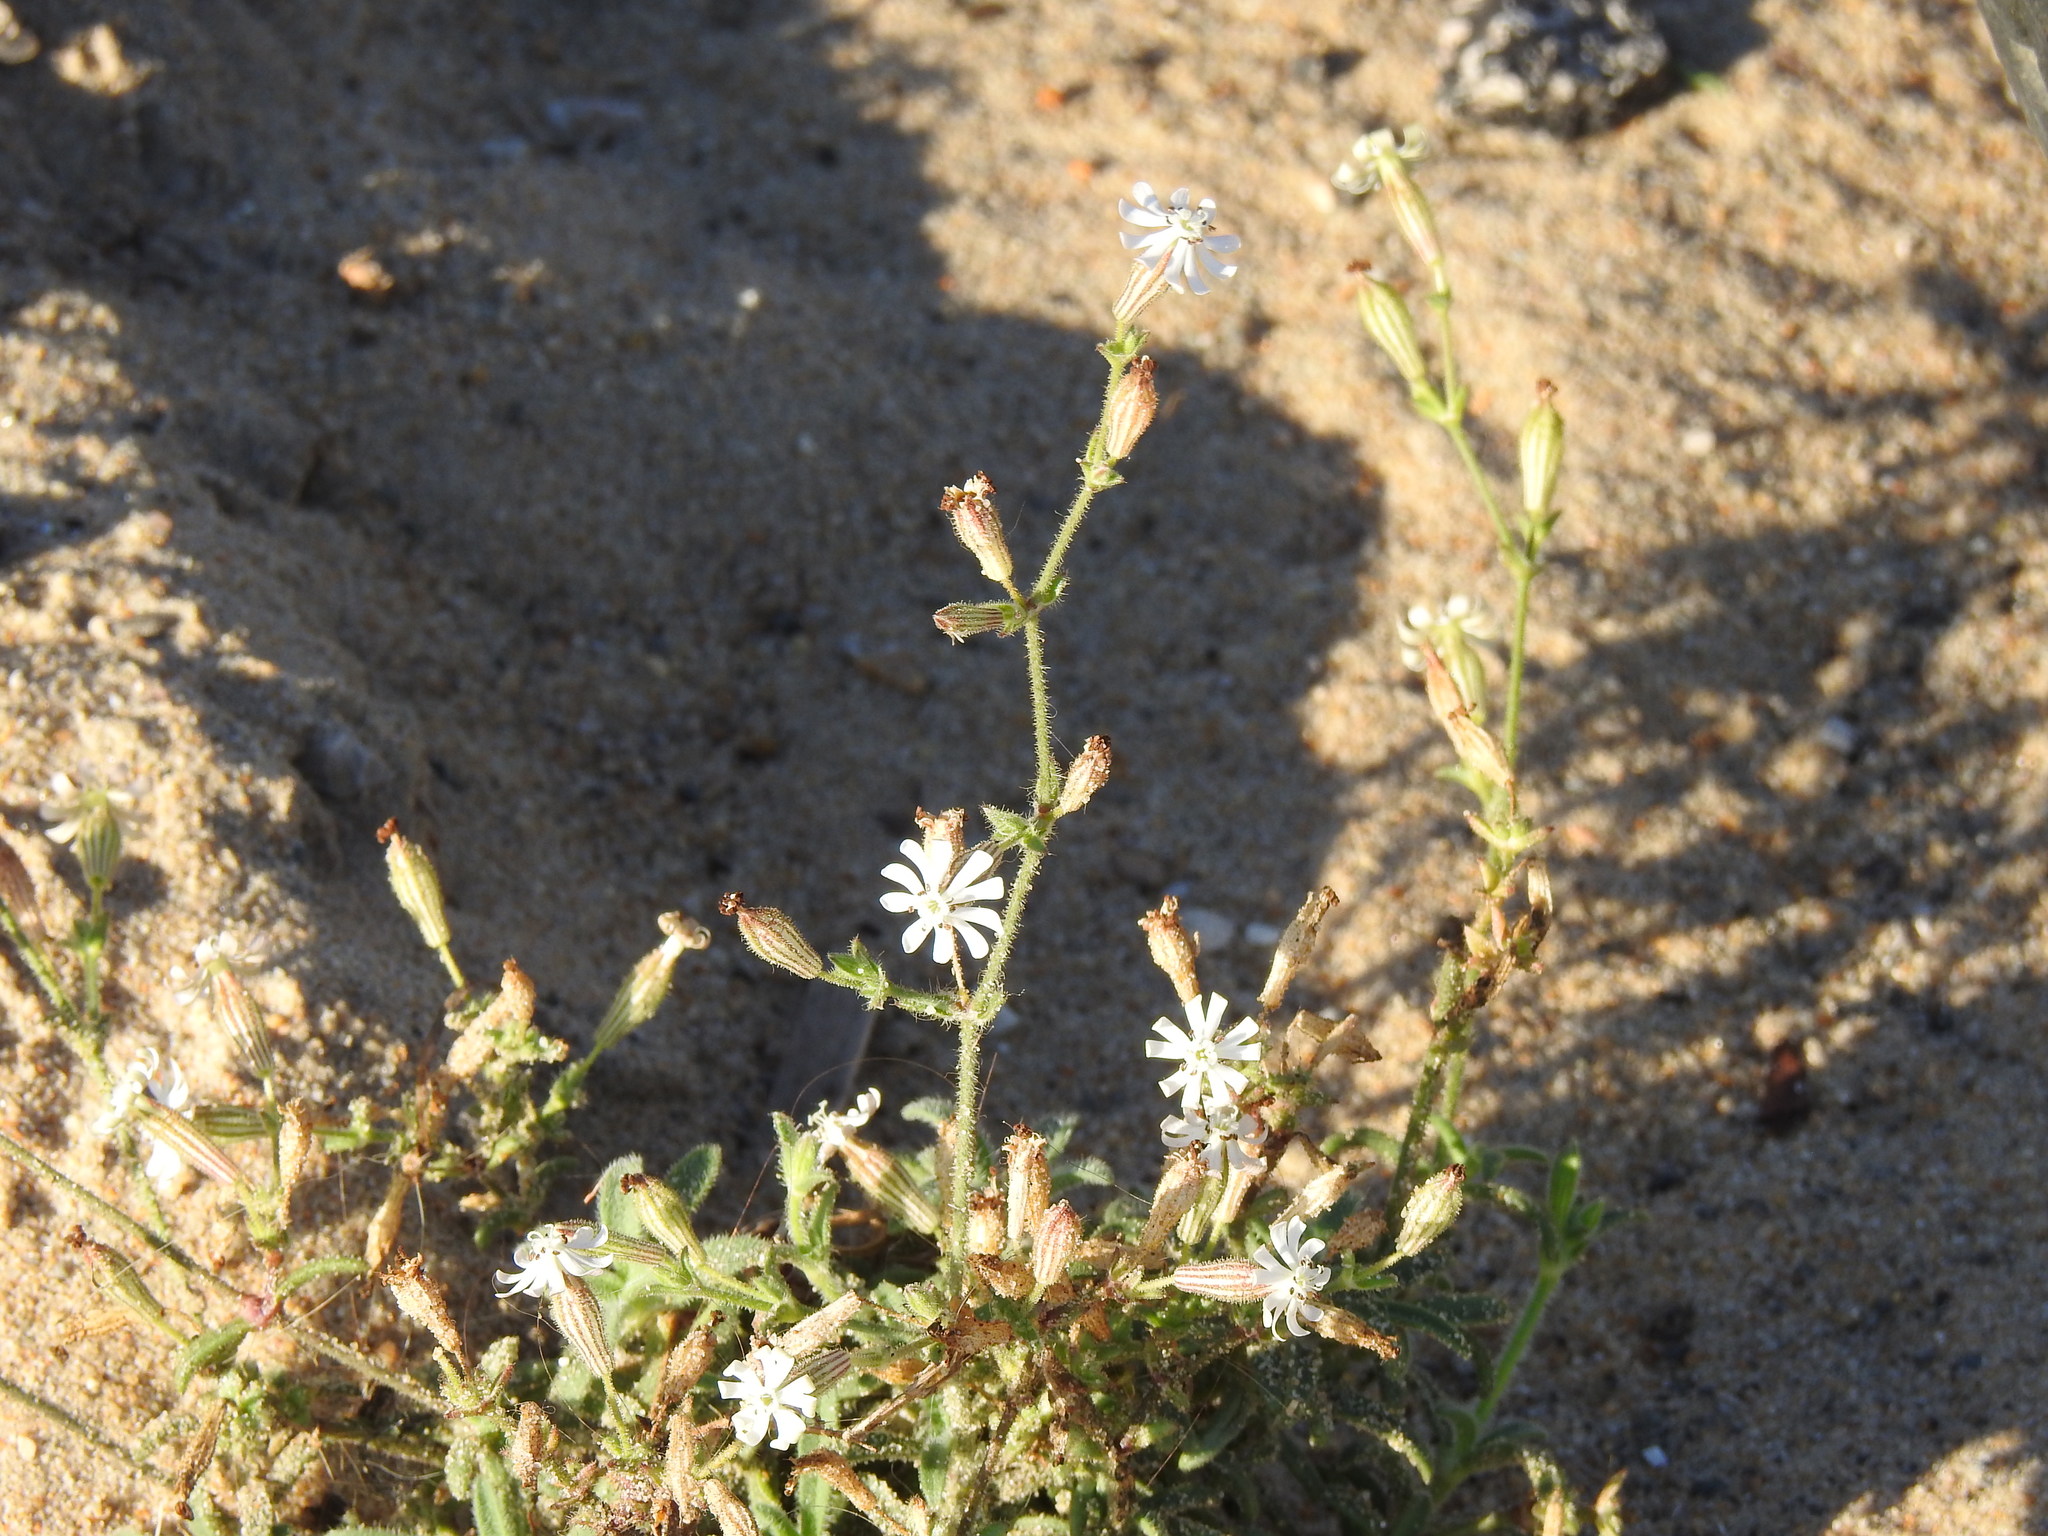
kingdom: Plantae
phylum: Tracheophyta
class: Magnoliopsida
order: Caryophyllales
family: Caryophyllaceae
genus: Silene
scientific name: Silene nicaeensis
